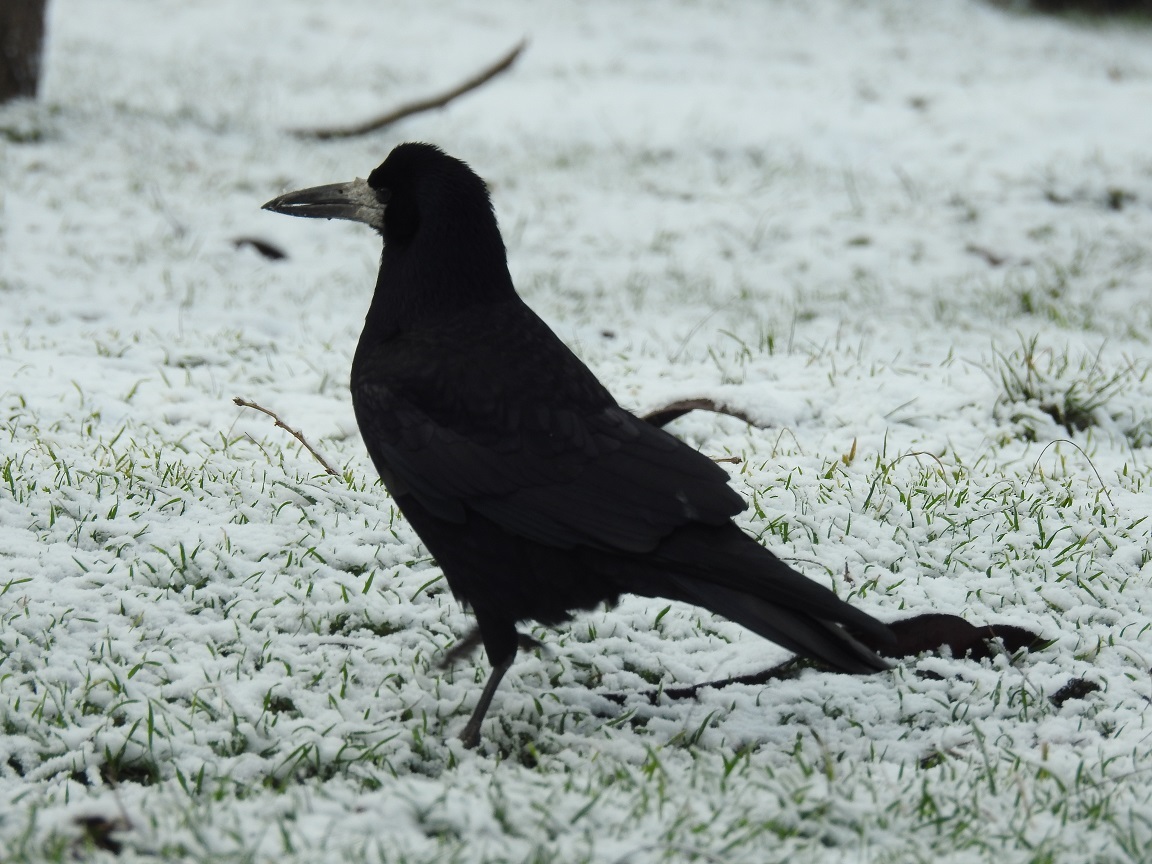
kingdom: Animalia
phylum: Chordata
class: Aves
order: Passeriformes
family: Corvidae
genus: Corvus
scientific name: Corvus frugilegus
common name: Rook
